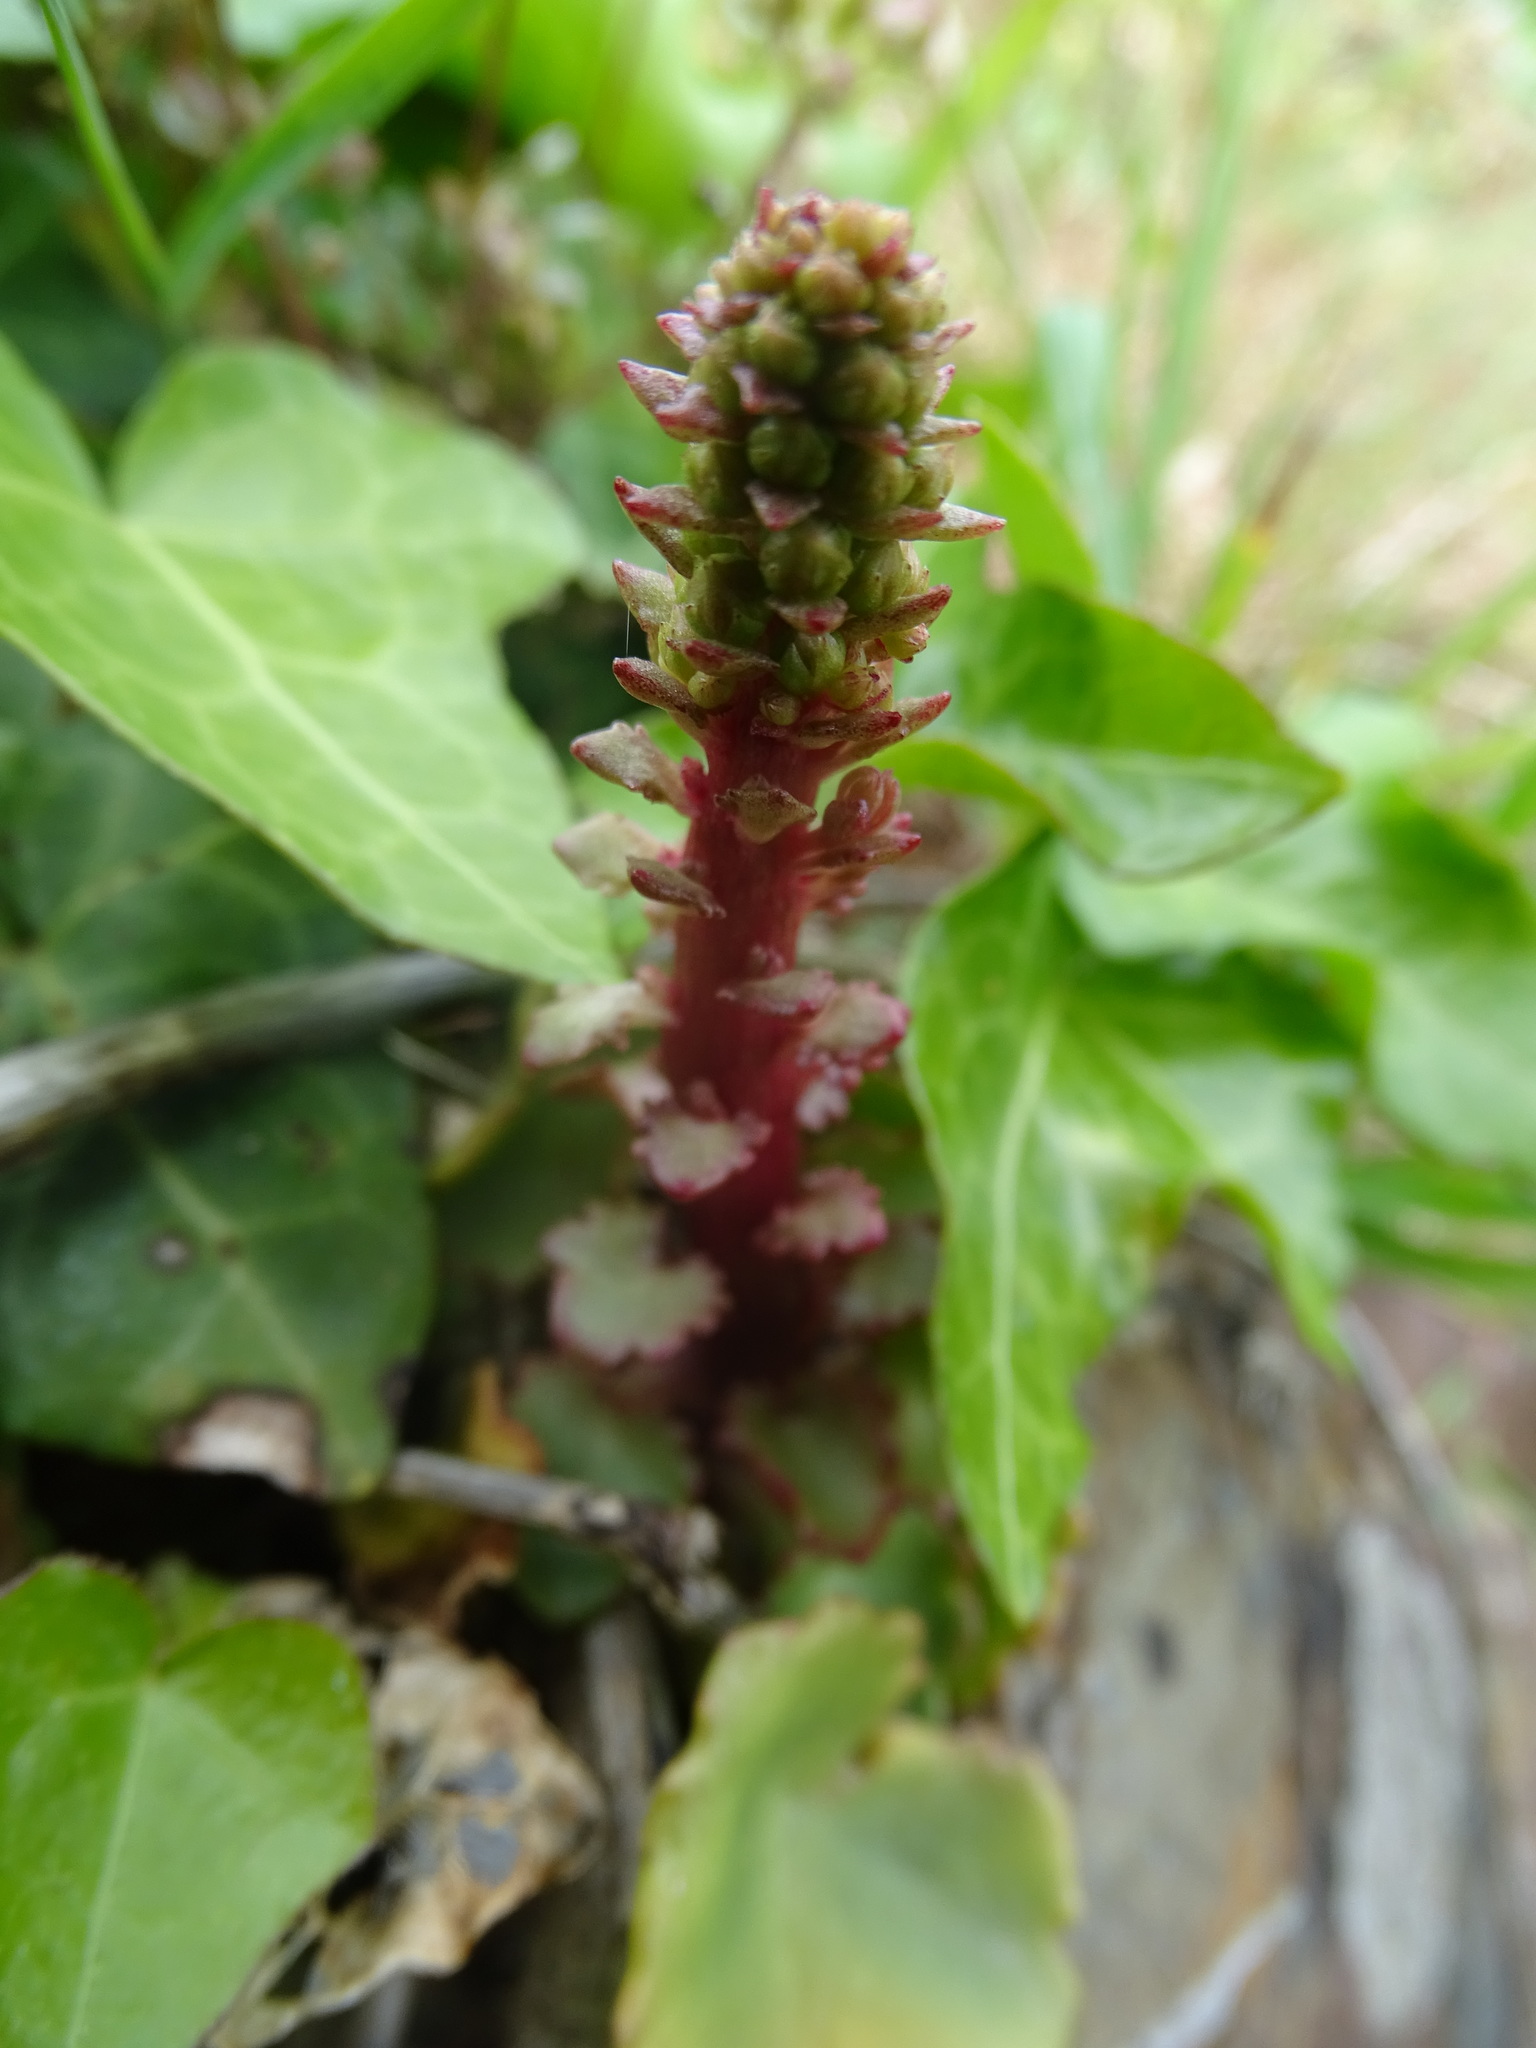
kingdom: Plantae
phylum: Tracheophyta
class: Magnoliopsida
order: Saxifragales
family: Crassulaceae
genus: Umbilicus
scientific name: Umbilicus rupestris
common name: Navelwort
